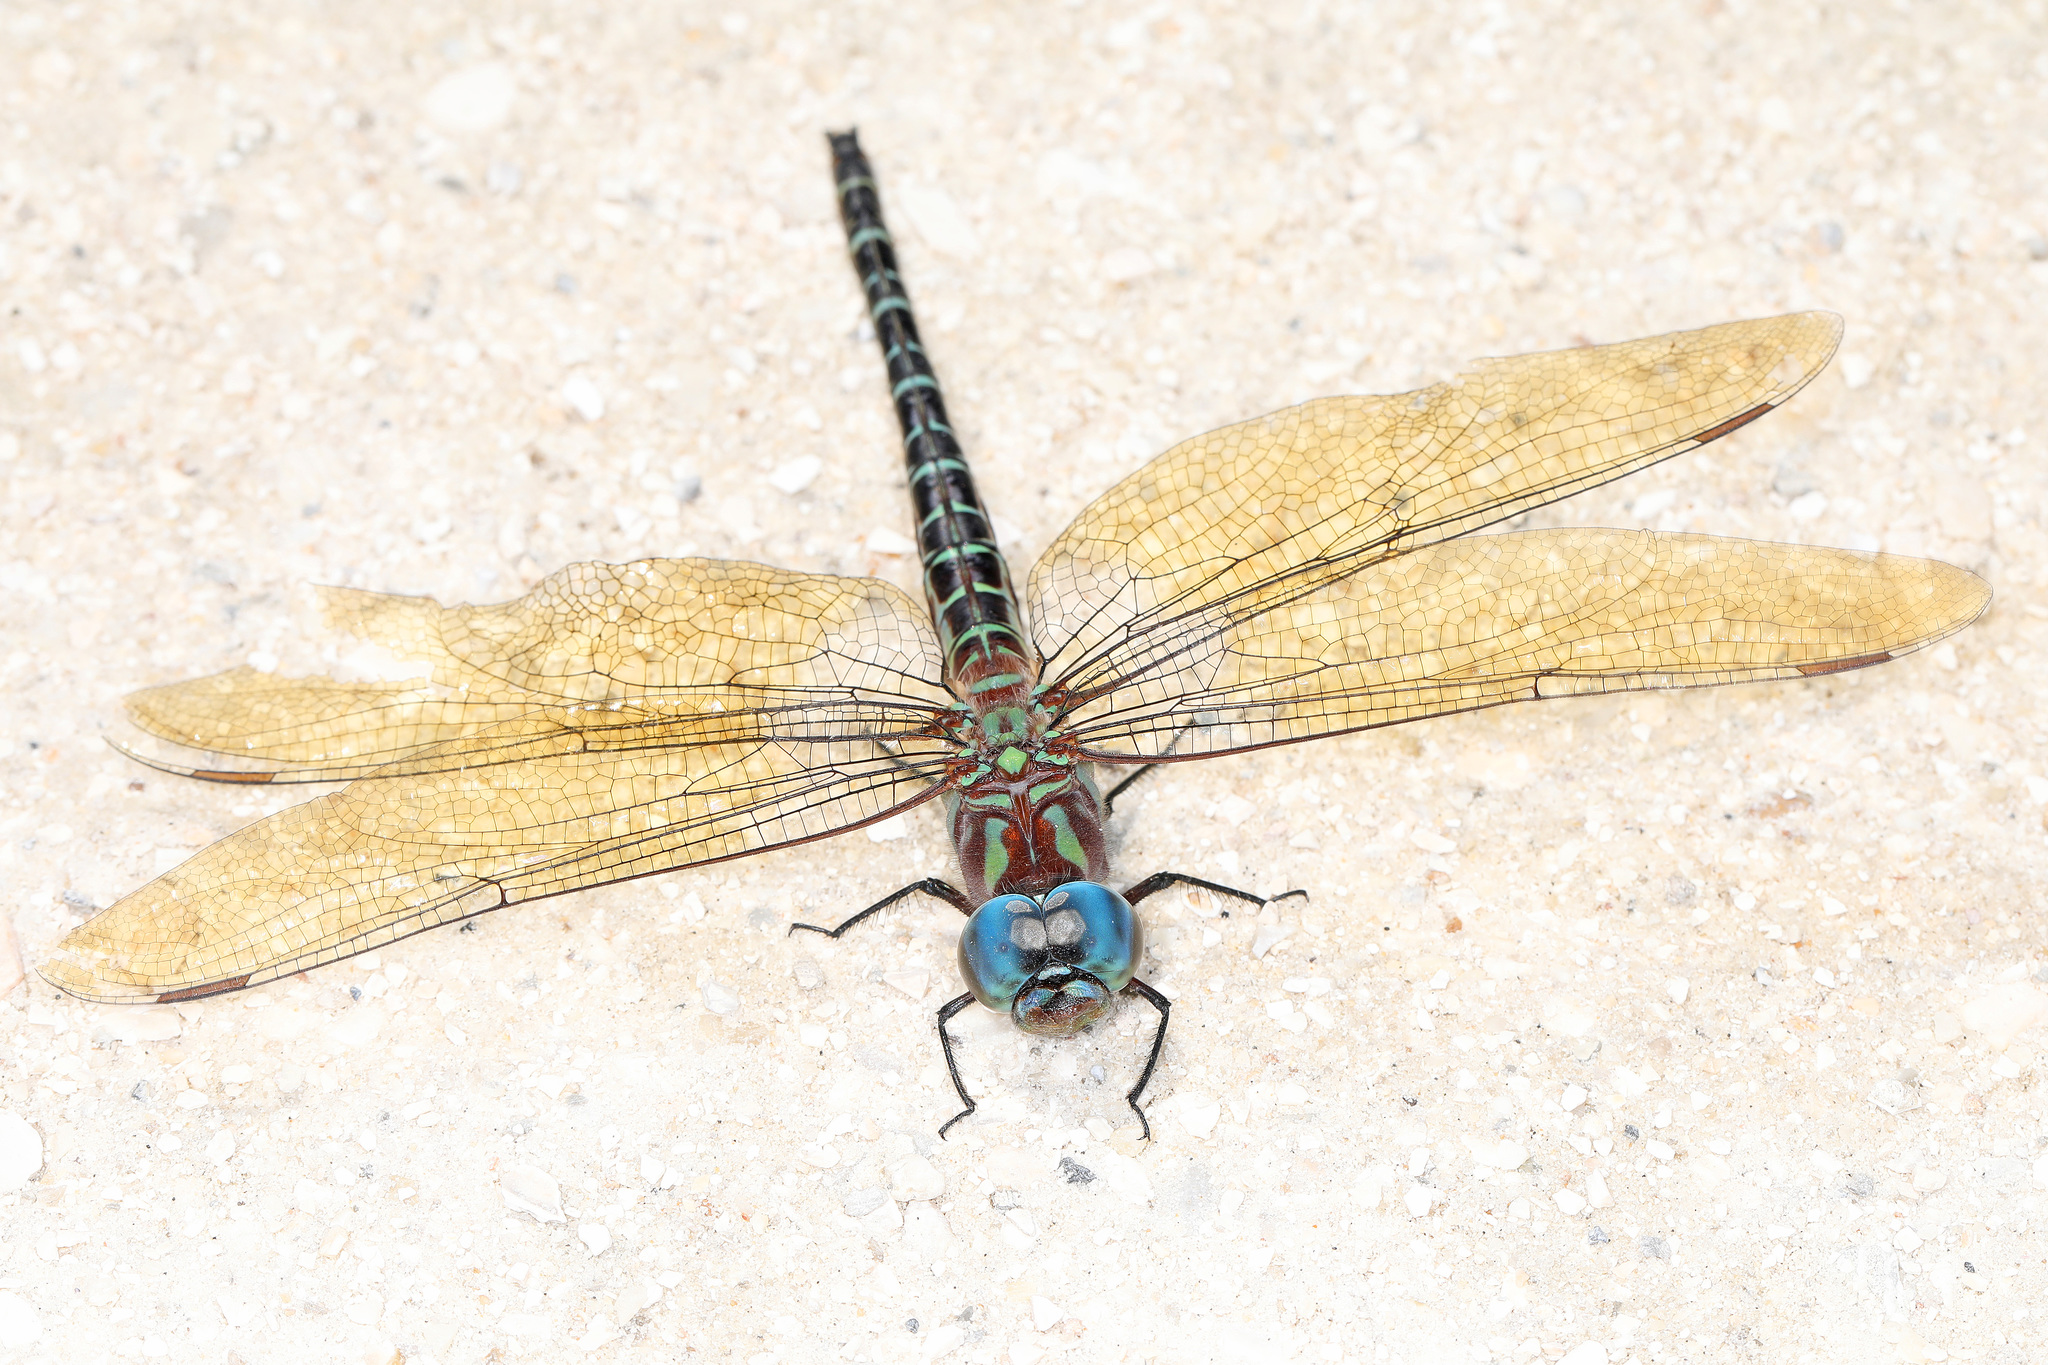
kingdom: Animalia
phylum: Arthropoda
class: Insecta
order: Odonata
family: Aeshnidae
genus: Coryphaeschna
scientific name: Coryphaeschna ingens
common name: Regal darner
